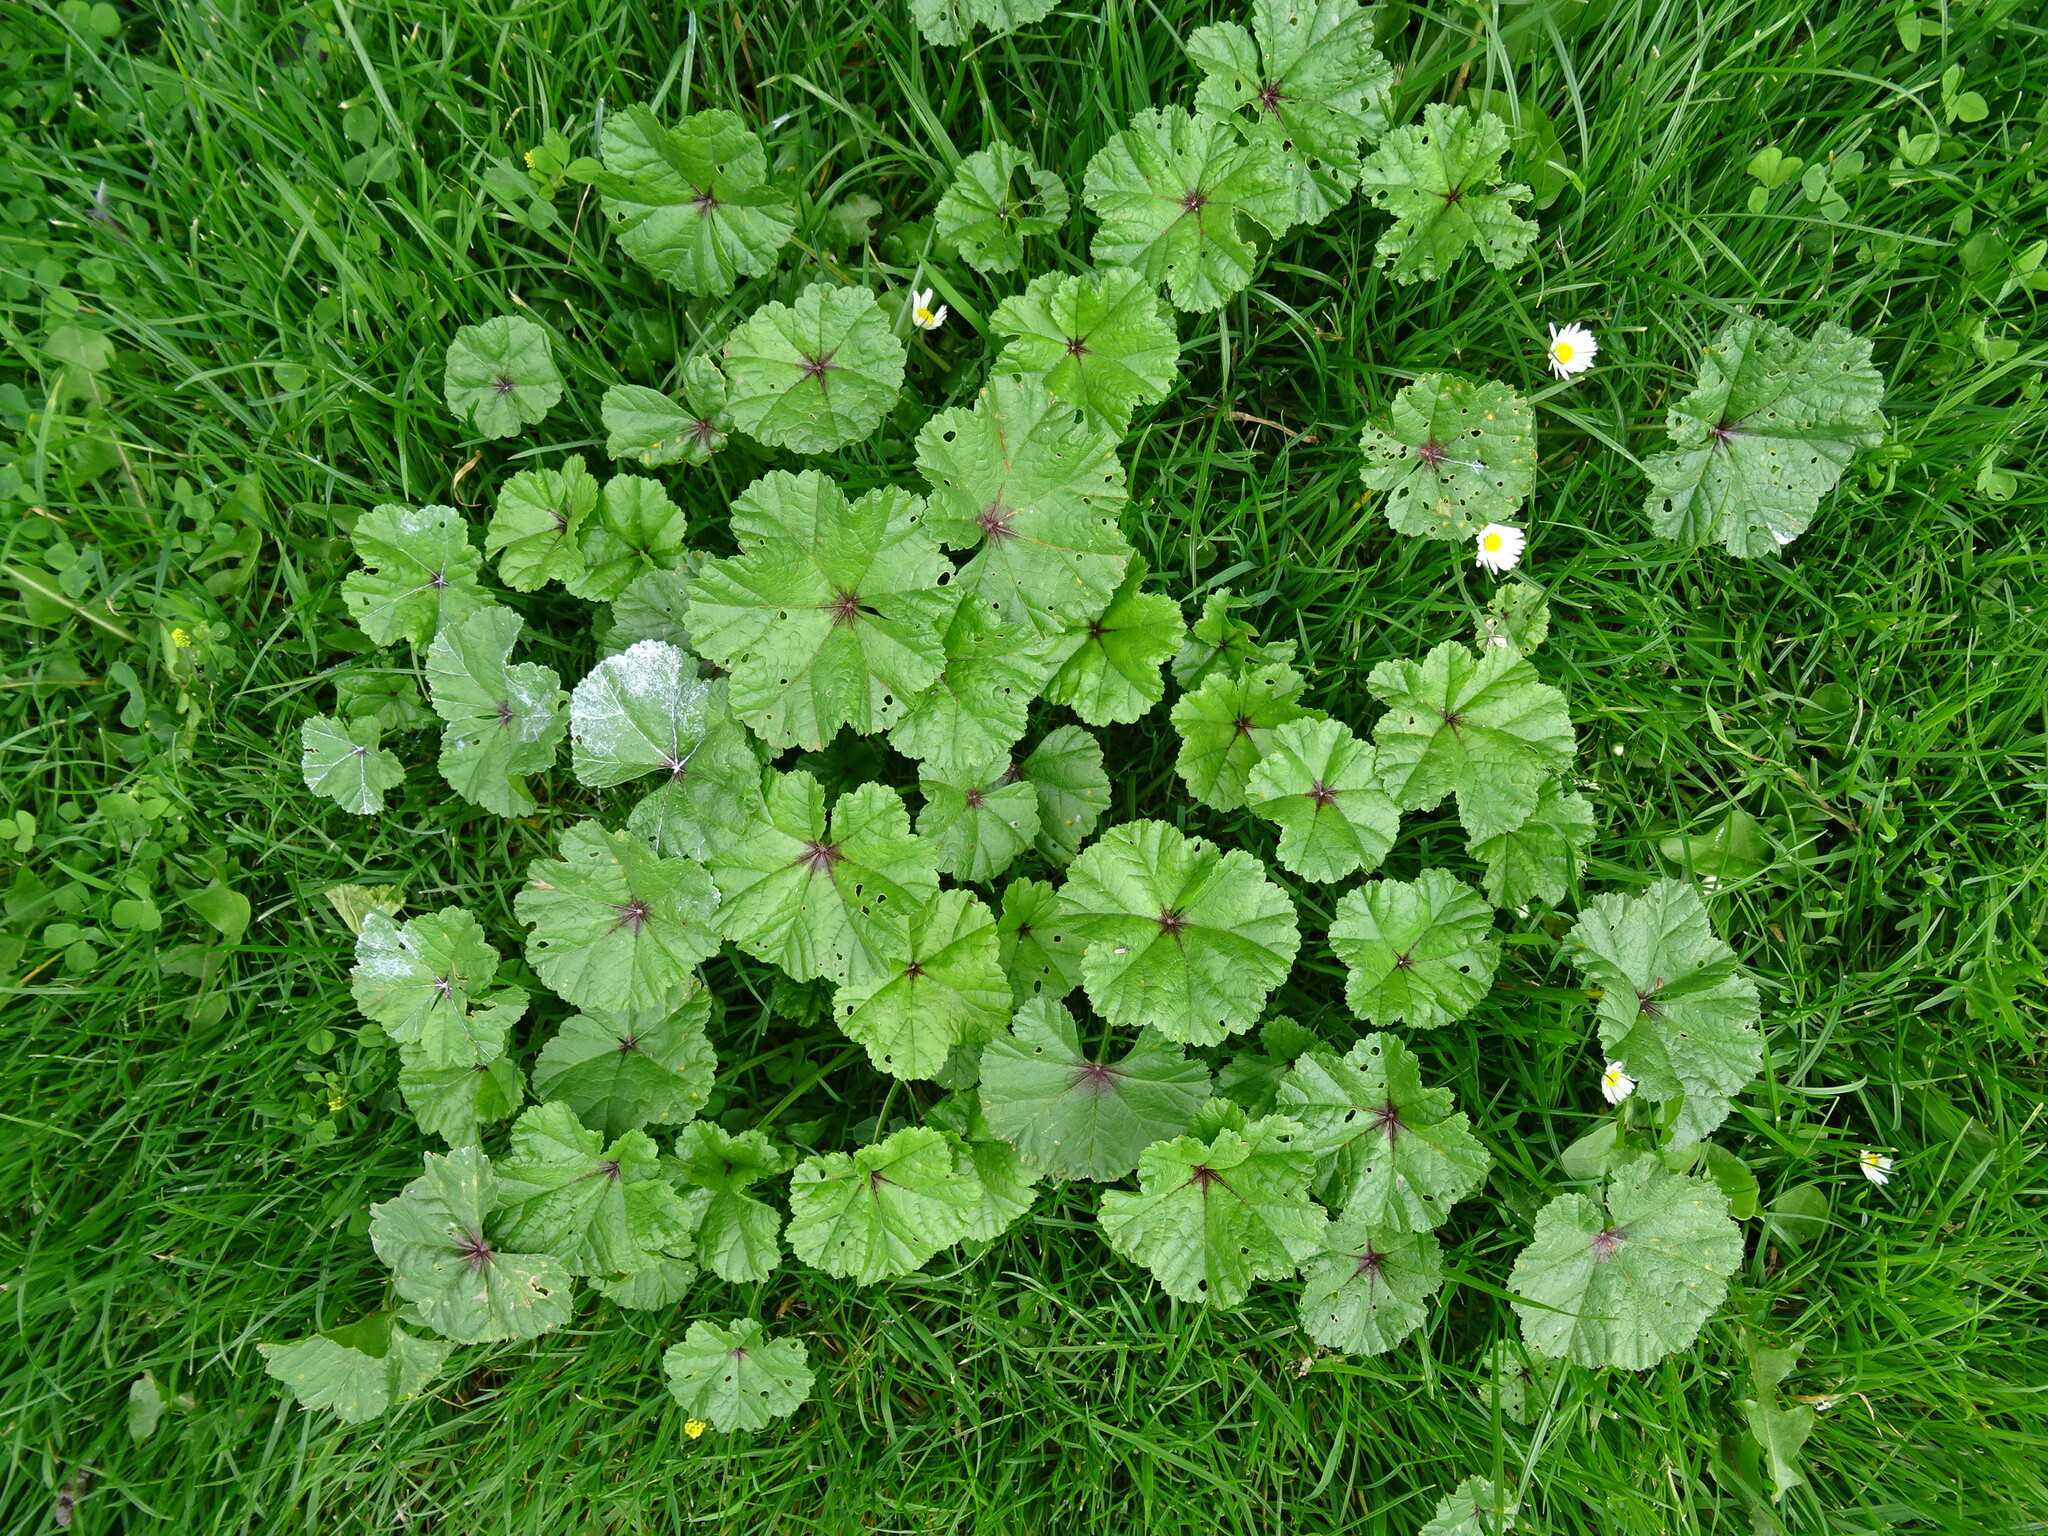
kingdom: Plantae
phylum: Tracheophyta
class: Magnoliopsida
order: Malvales
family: Malvaceae
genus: Malva
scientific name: Malva sylvestris
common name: Common mallow
